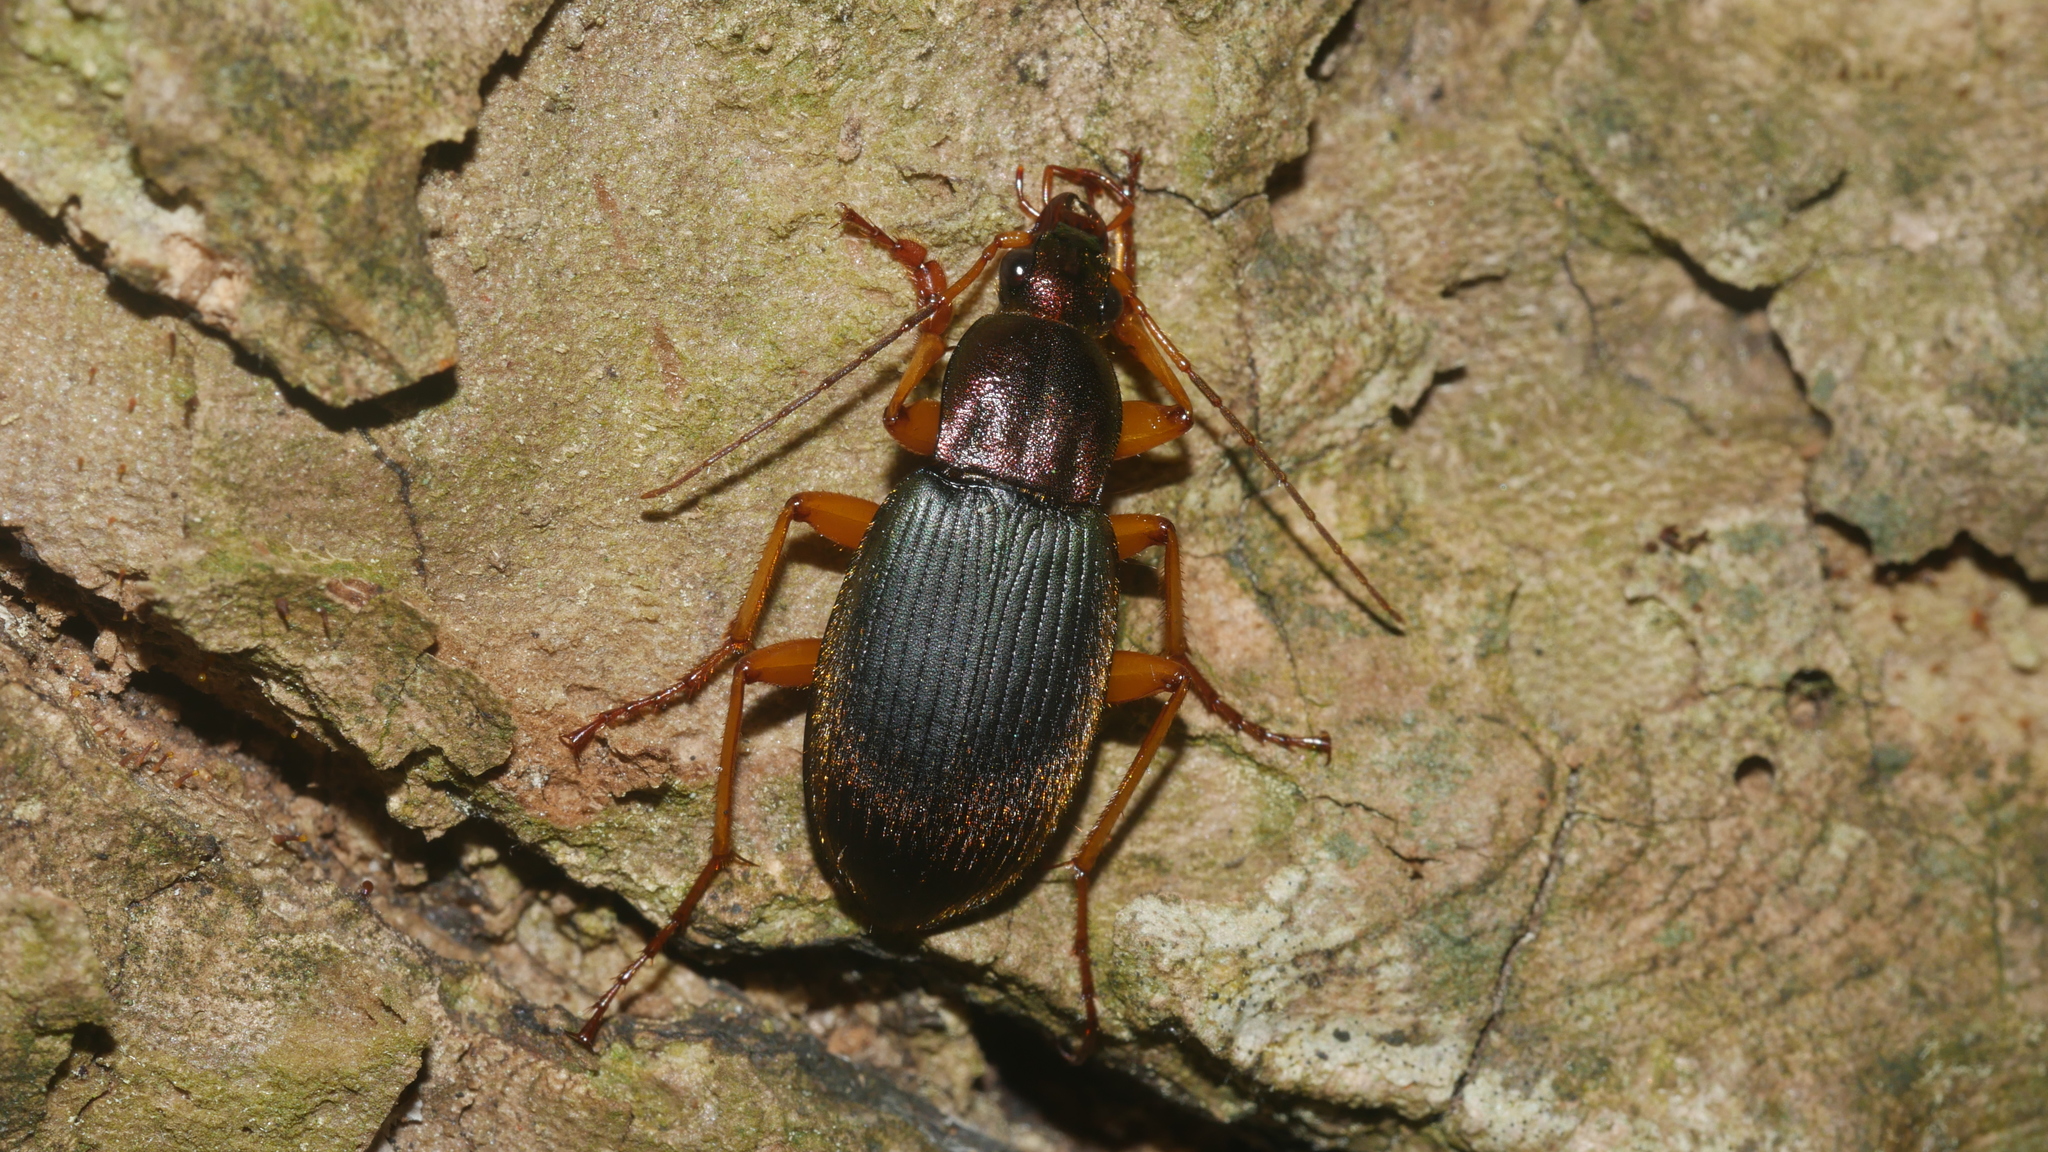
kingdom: Animalia
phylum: Arthropoda
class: Insecta
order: Coleoptera
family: Carabidae
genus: Chlaenius
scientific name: Chlaenius aestivus
